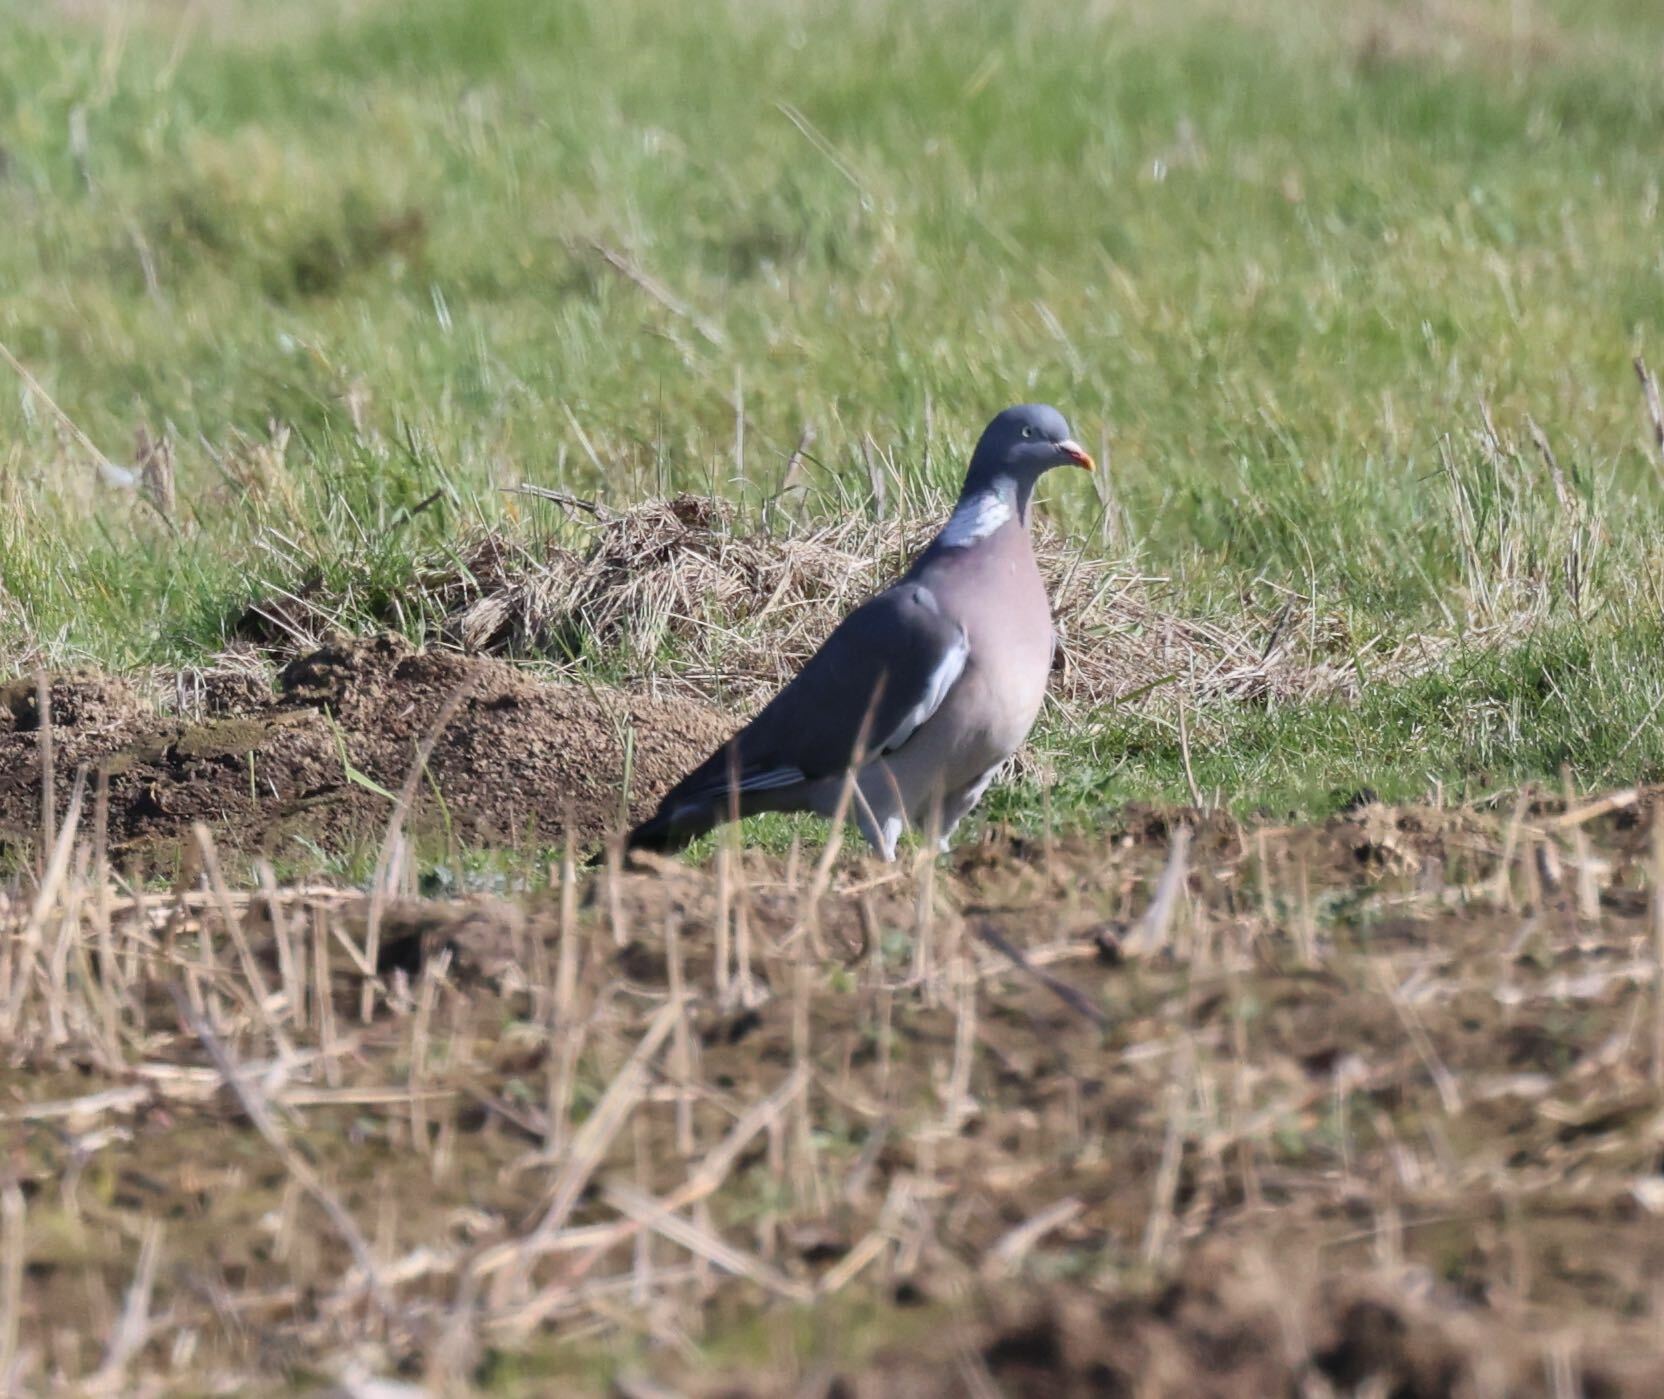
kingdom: Animalia
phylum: Chordata
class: Aves
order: Columbiformes
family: Columbidae
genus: Columba
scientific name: Columba palumbus
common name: Common wood pigeon
